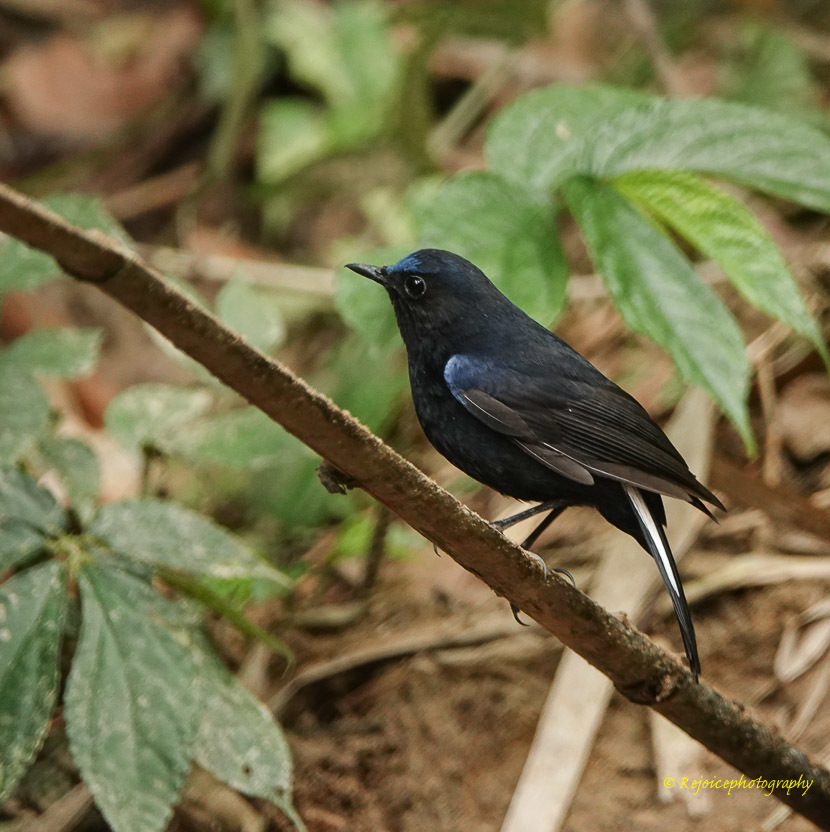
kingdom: Animalia
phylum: Chordata
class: Aves
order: Passeriformes
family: Muscicapidae
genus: Myiomela
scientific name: Myiomela leucura
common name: White-tailed robin
